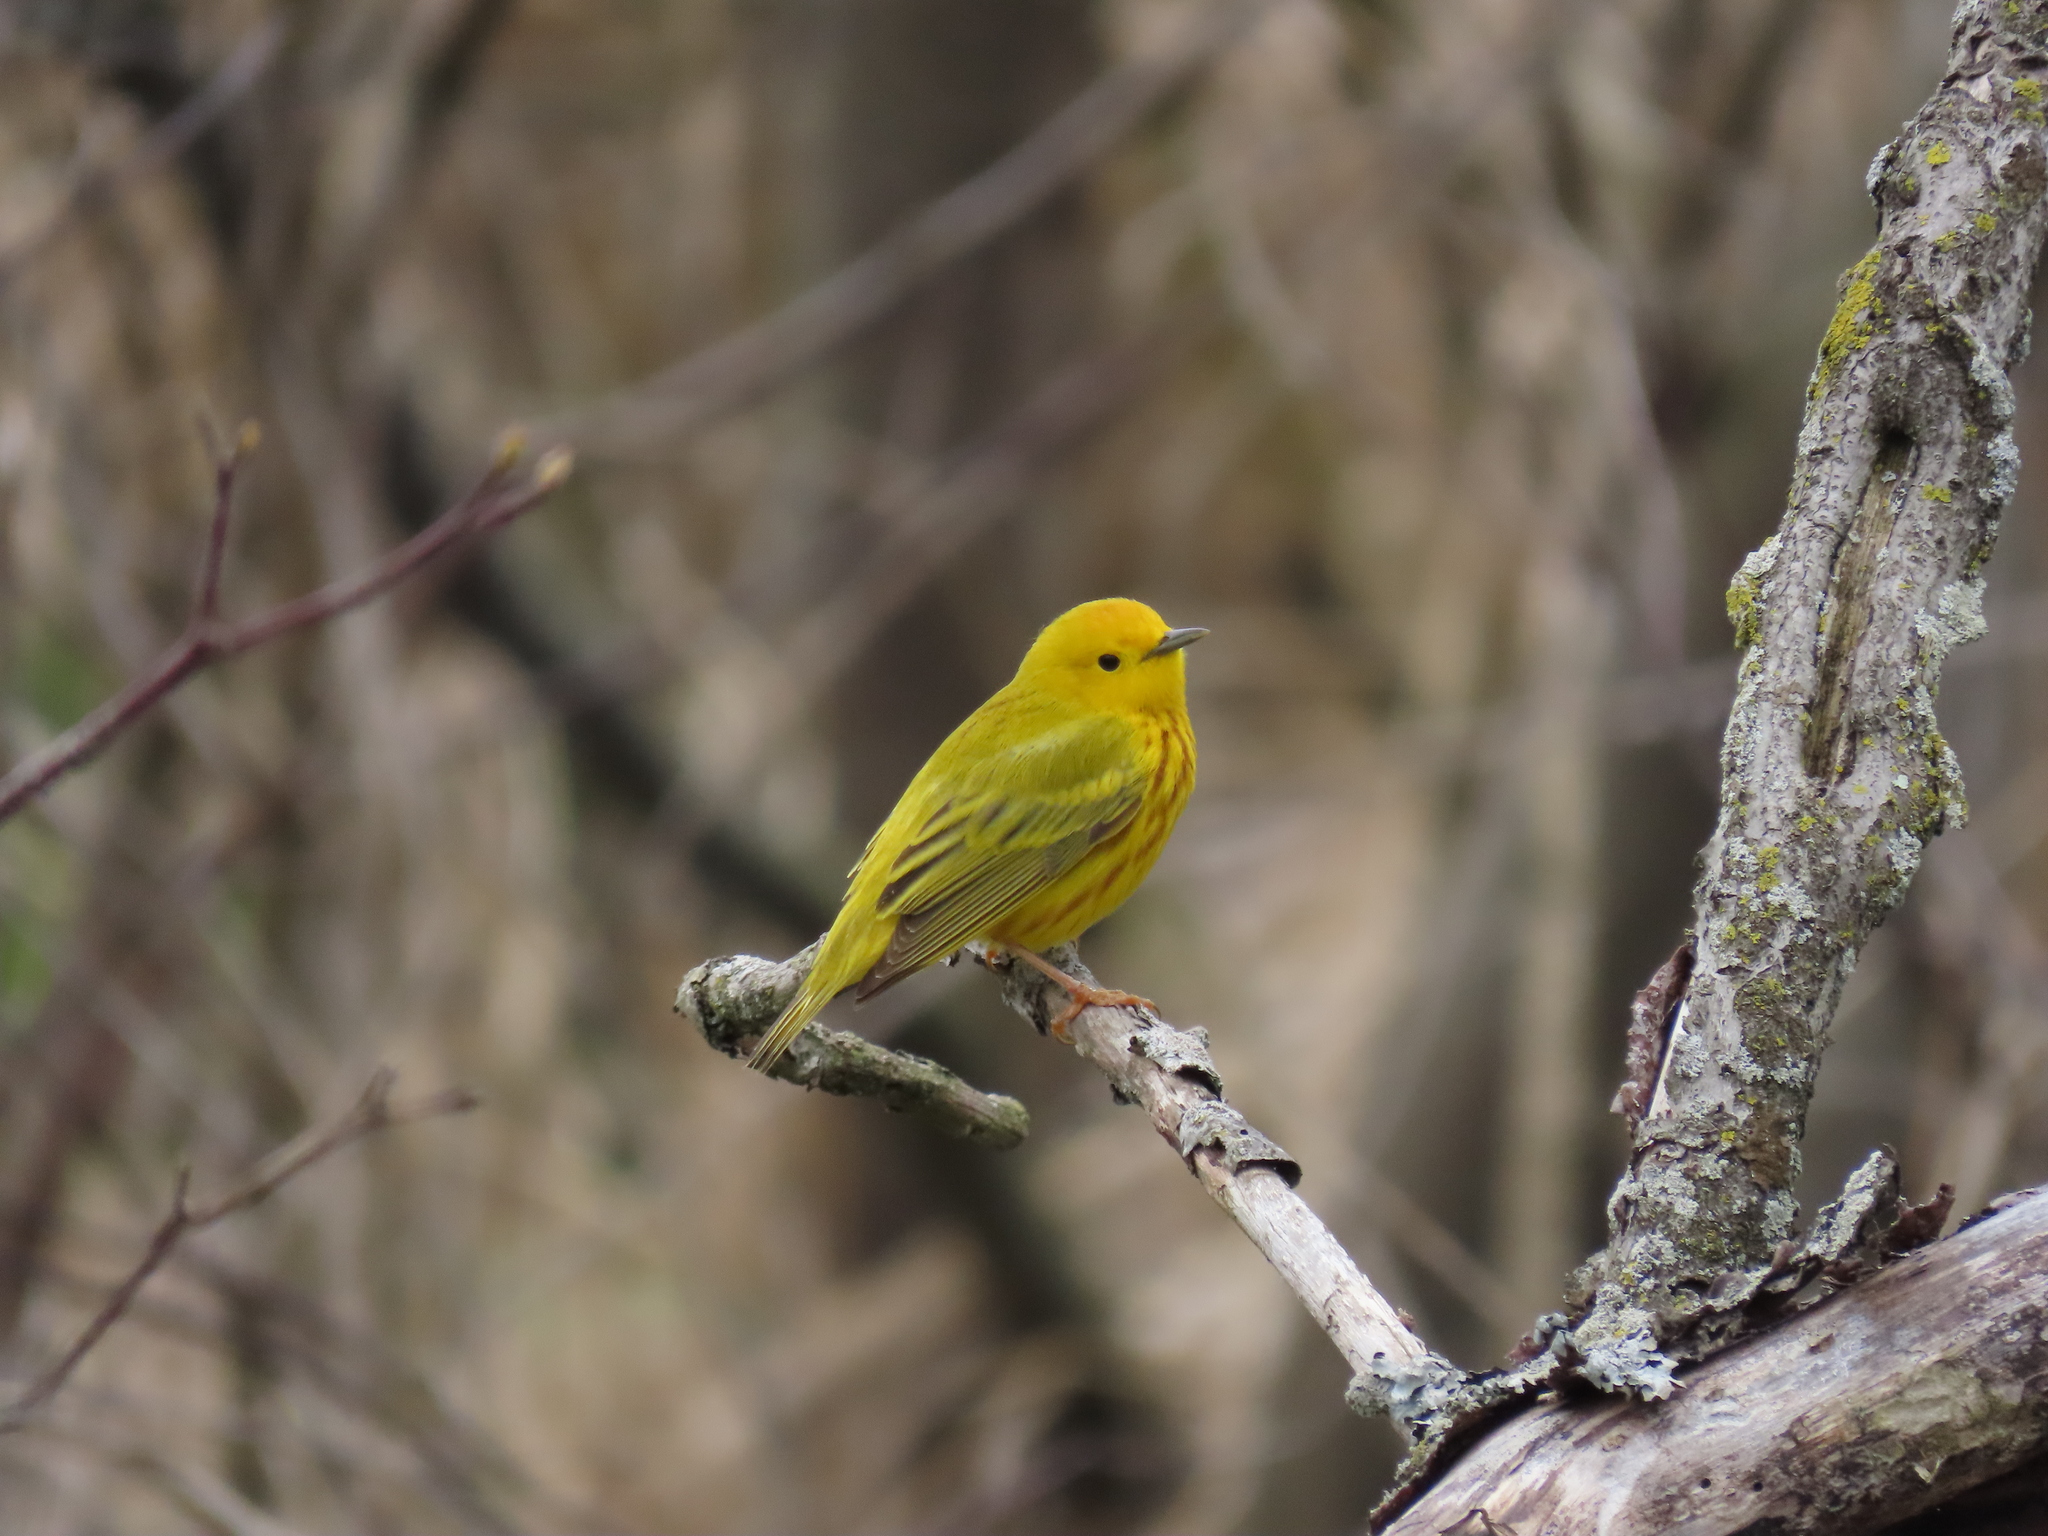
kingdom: Animalia
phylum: Chordata
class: Aves
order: Passeriformes
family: Parulidae
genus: Setophaga
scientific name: Setophaga petechia
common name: Yellow warbler
